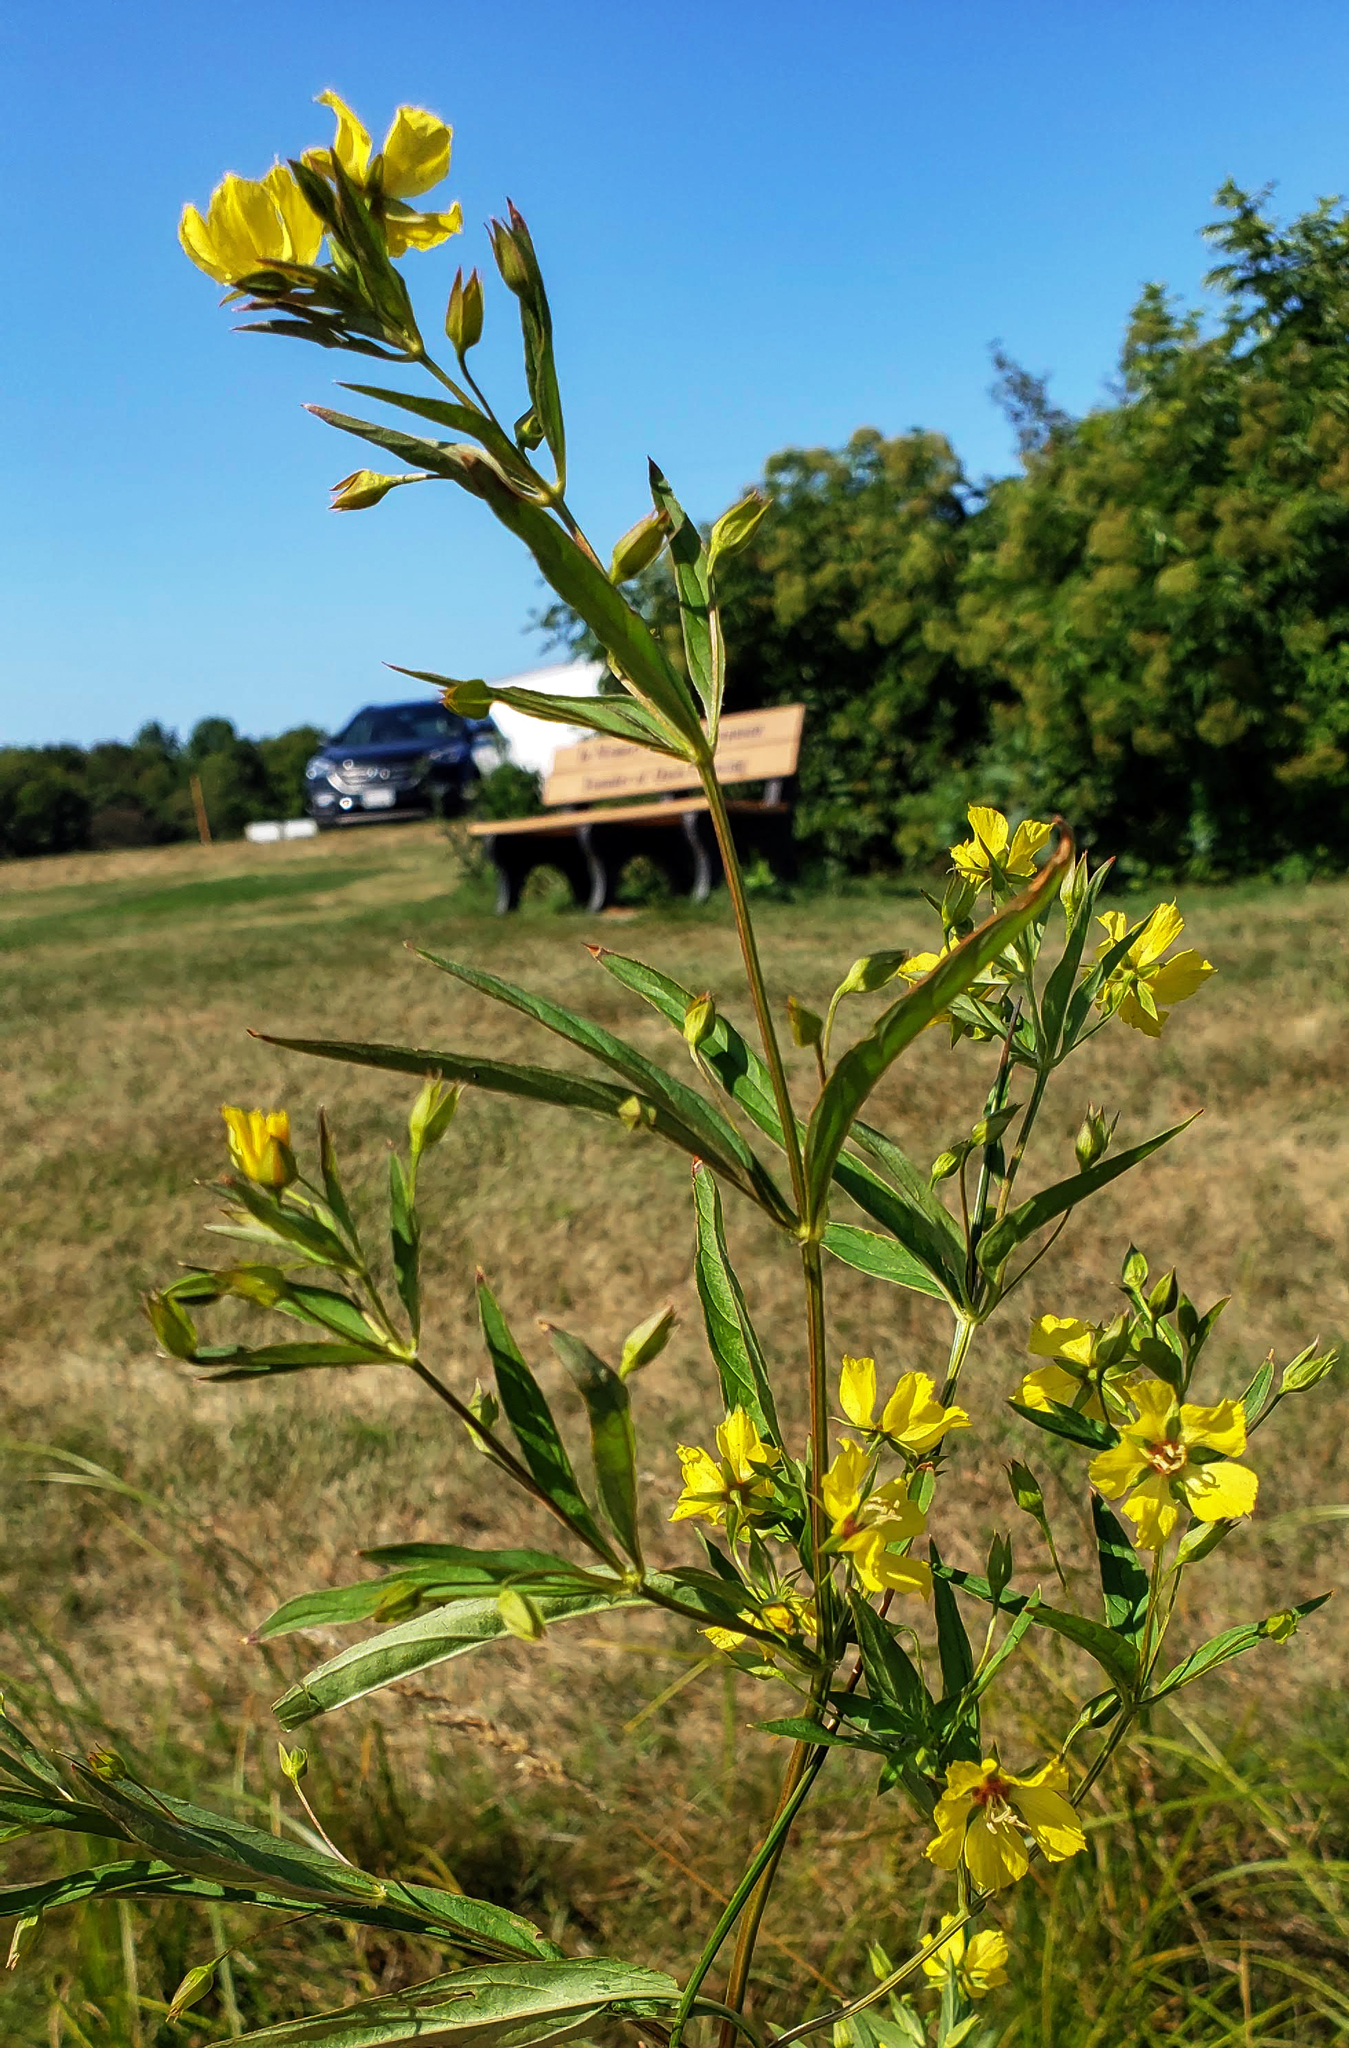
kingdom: Plantae
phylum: Tracheophyta
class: Magnoliopsida
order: Ericales
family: Primulaceae
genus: Lysimachia
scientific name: Lysimachia hybrida
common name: Lowland loosestrife
